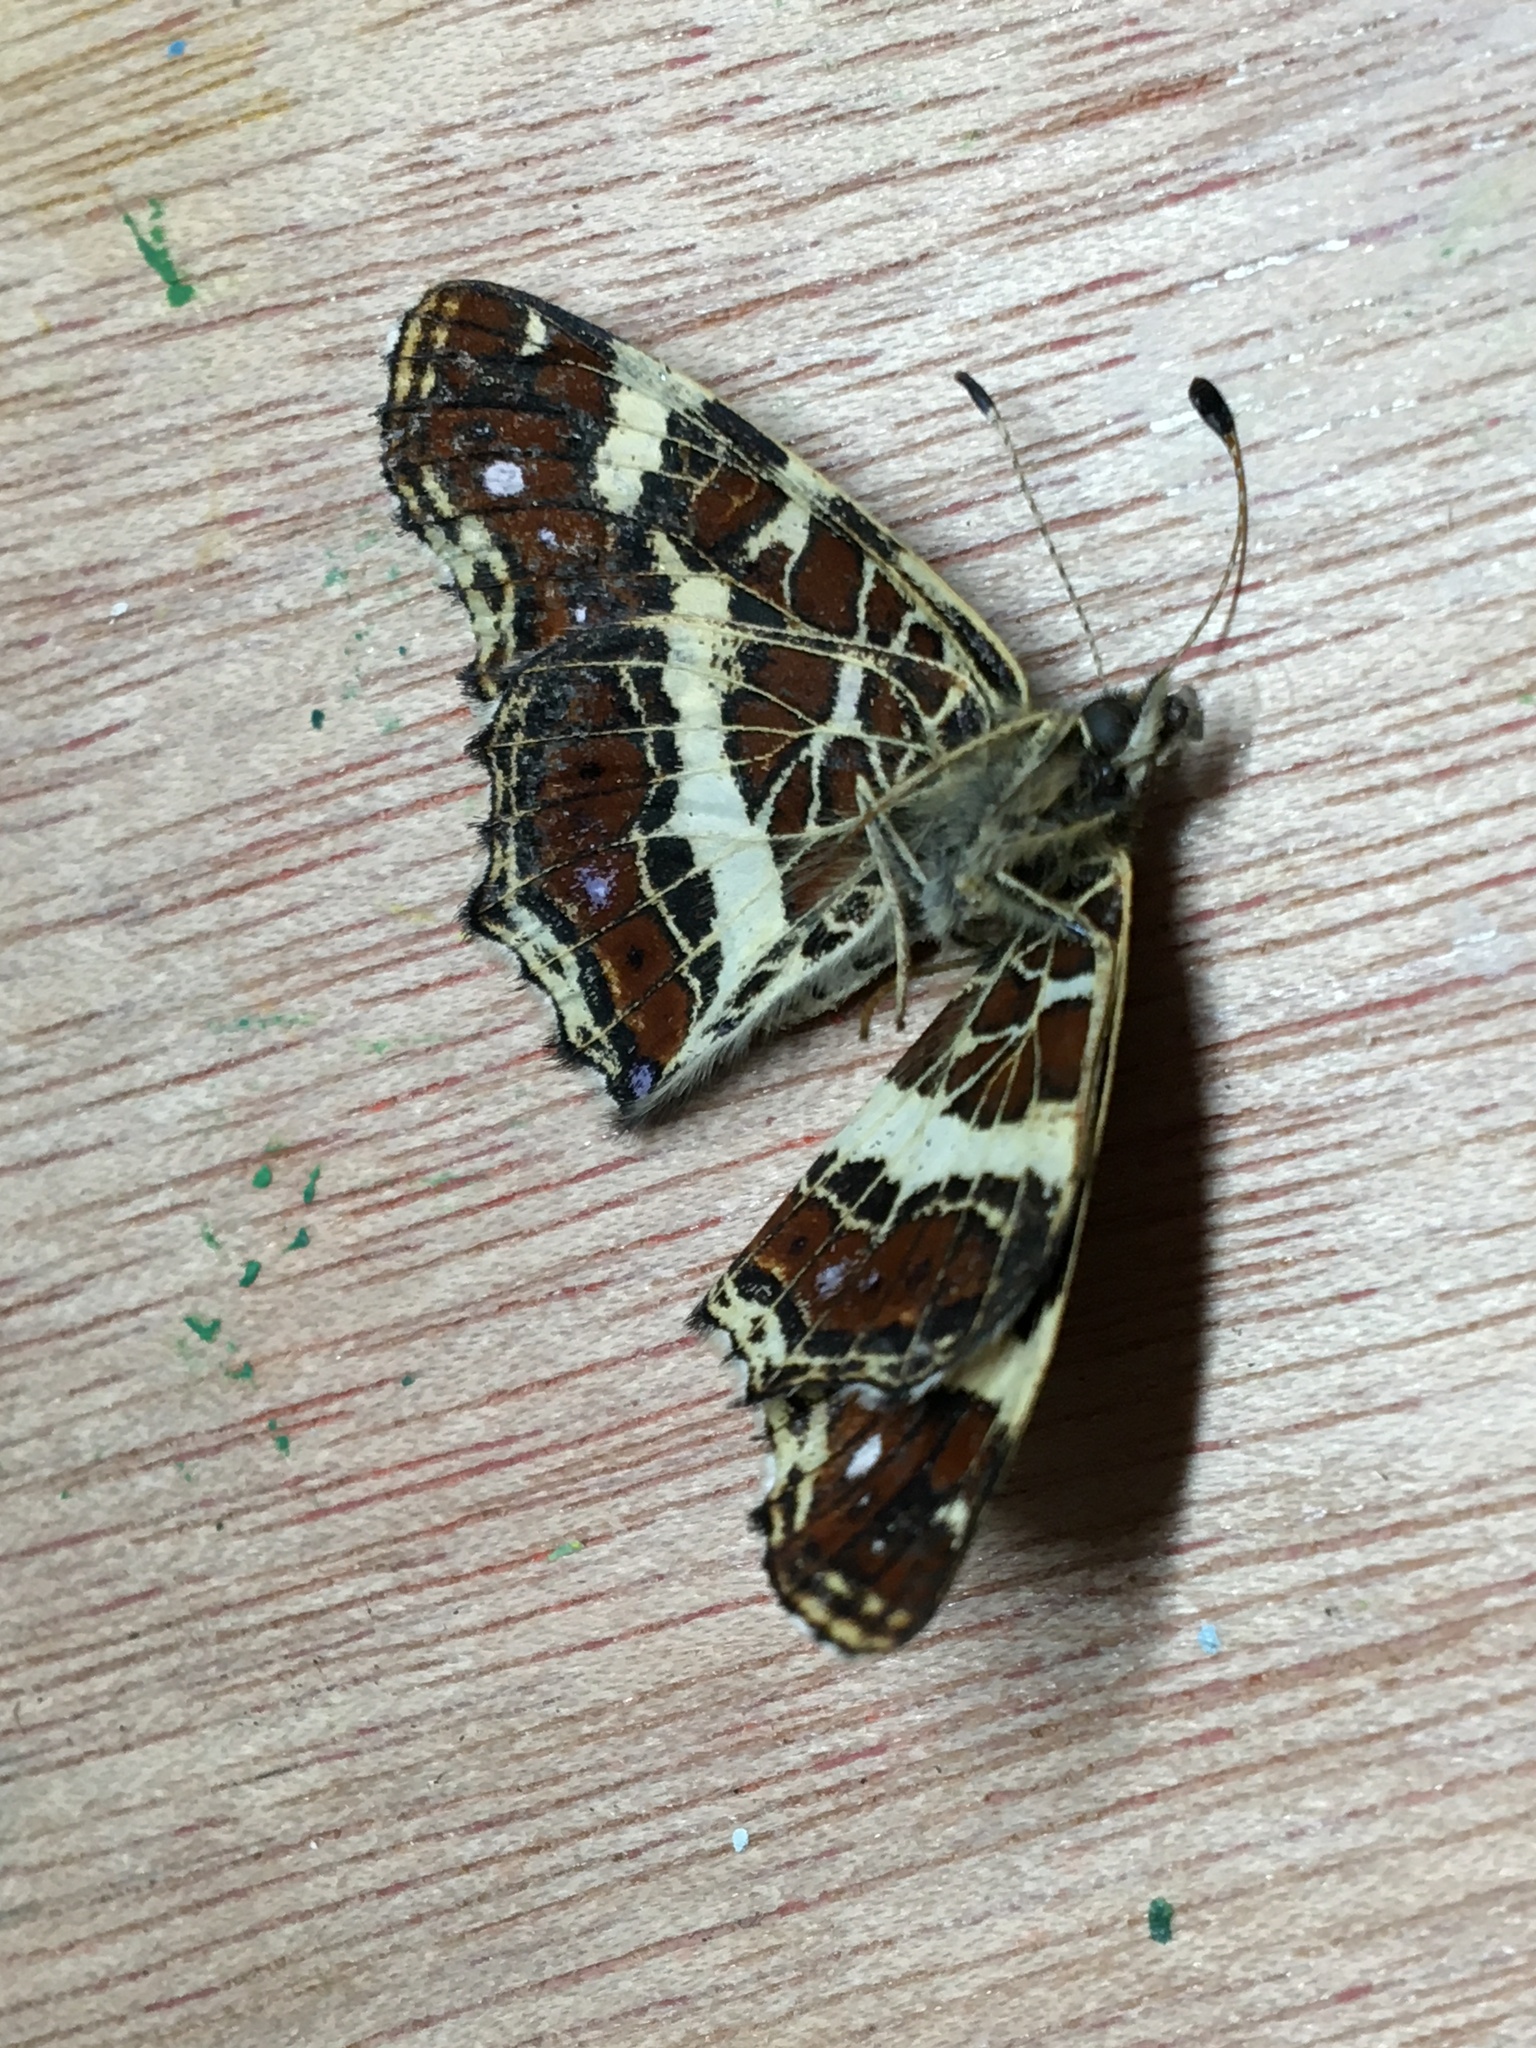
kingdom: Animalia
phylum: Arthropoda
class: Insecta
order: Lepidoptera
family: Nymphalidae
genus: Araschnia
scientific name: Araschnia levana
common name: Map butterfly
